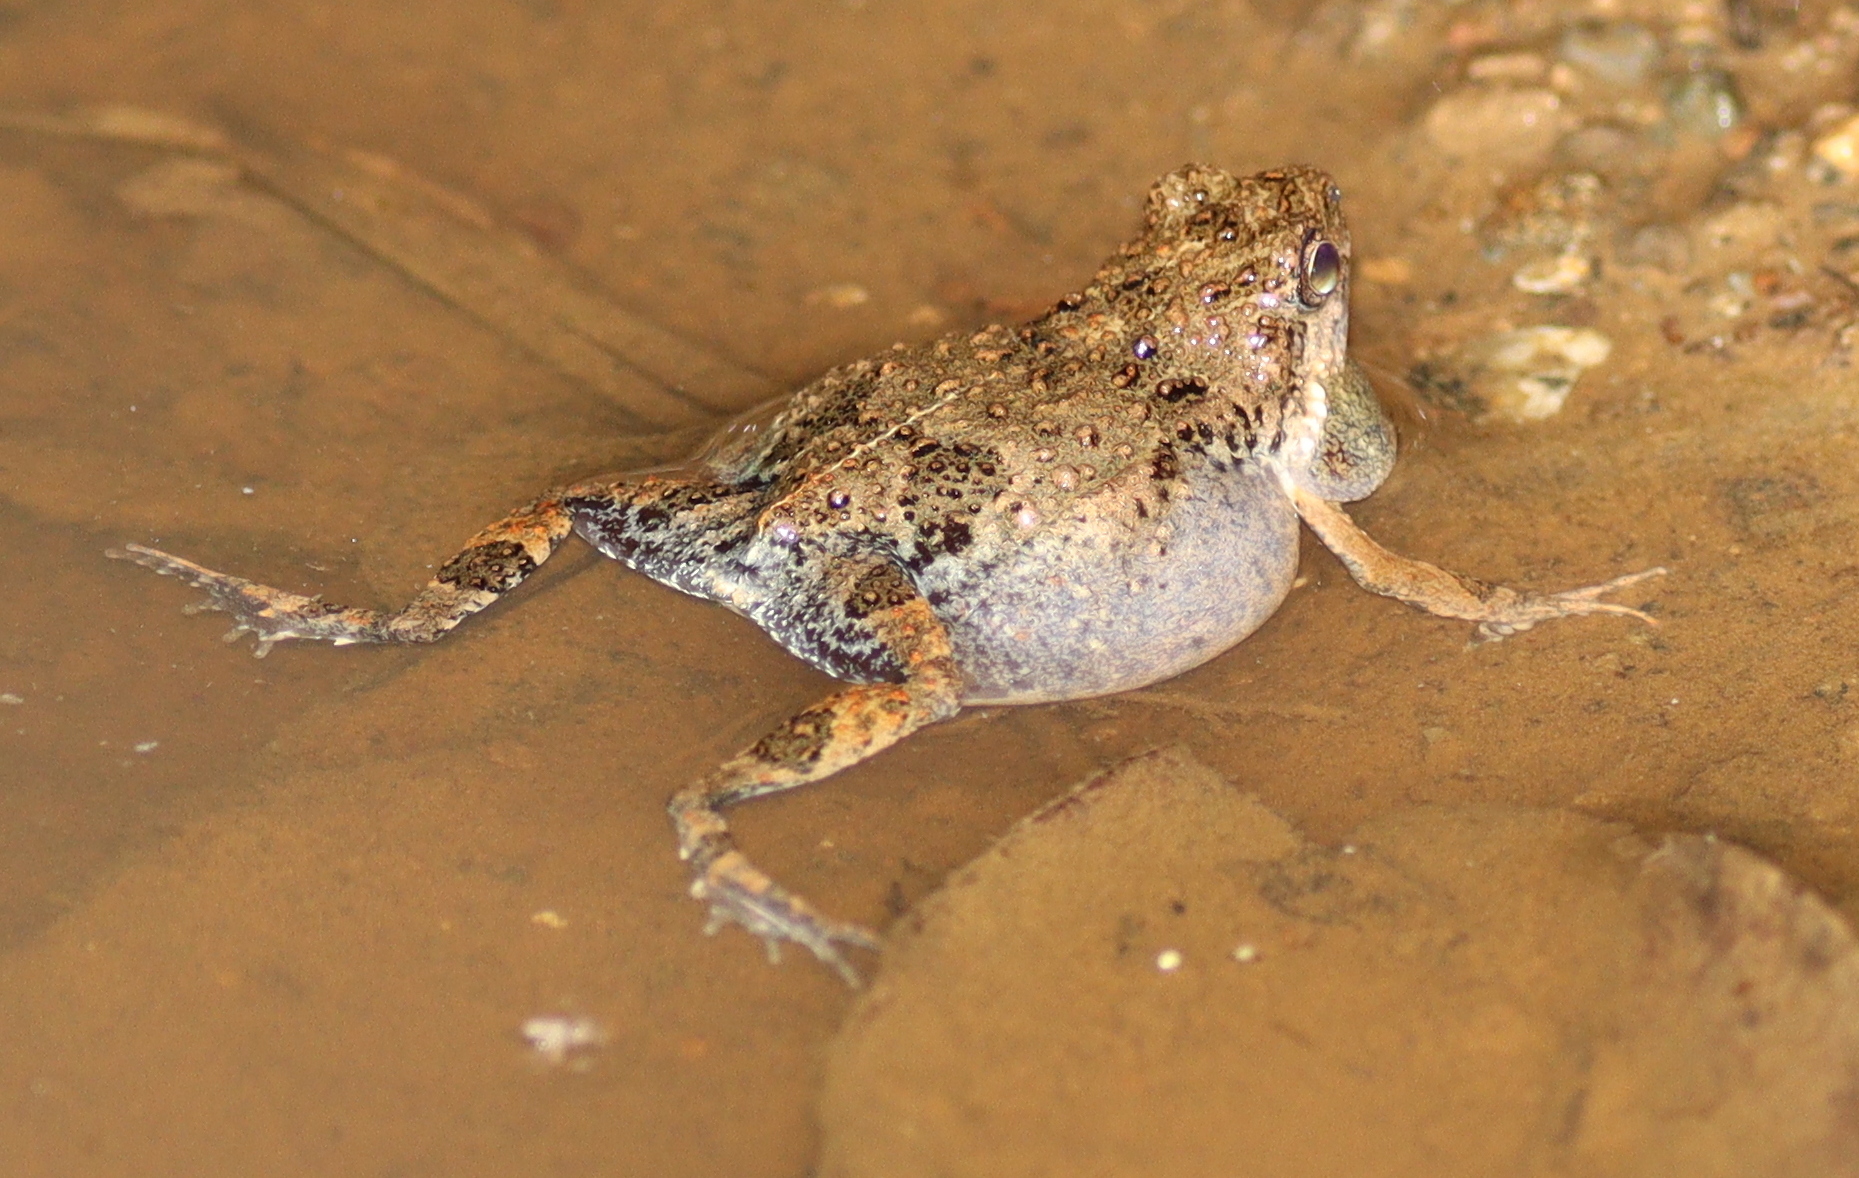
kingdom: Animalia
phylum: Chordata
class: Amphibia
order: Anura
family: Leptodactylidae
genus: Engystomops
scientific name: Engystomops pustulosus
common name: Tungara frog
